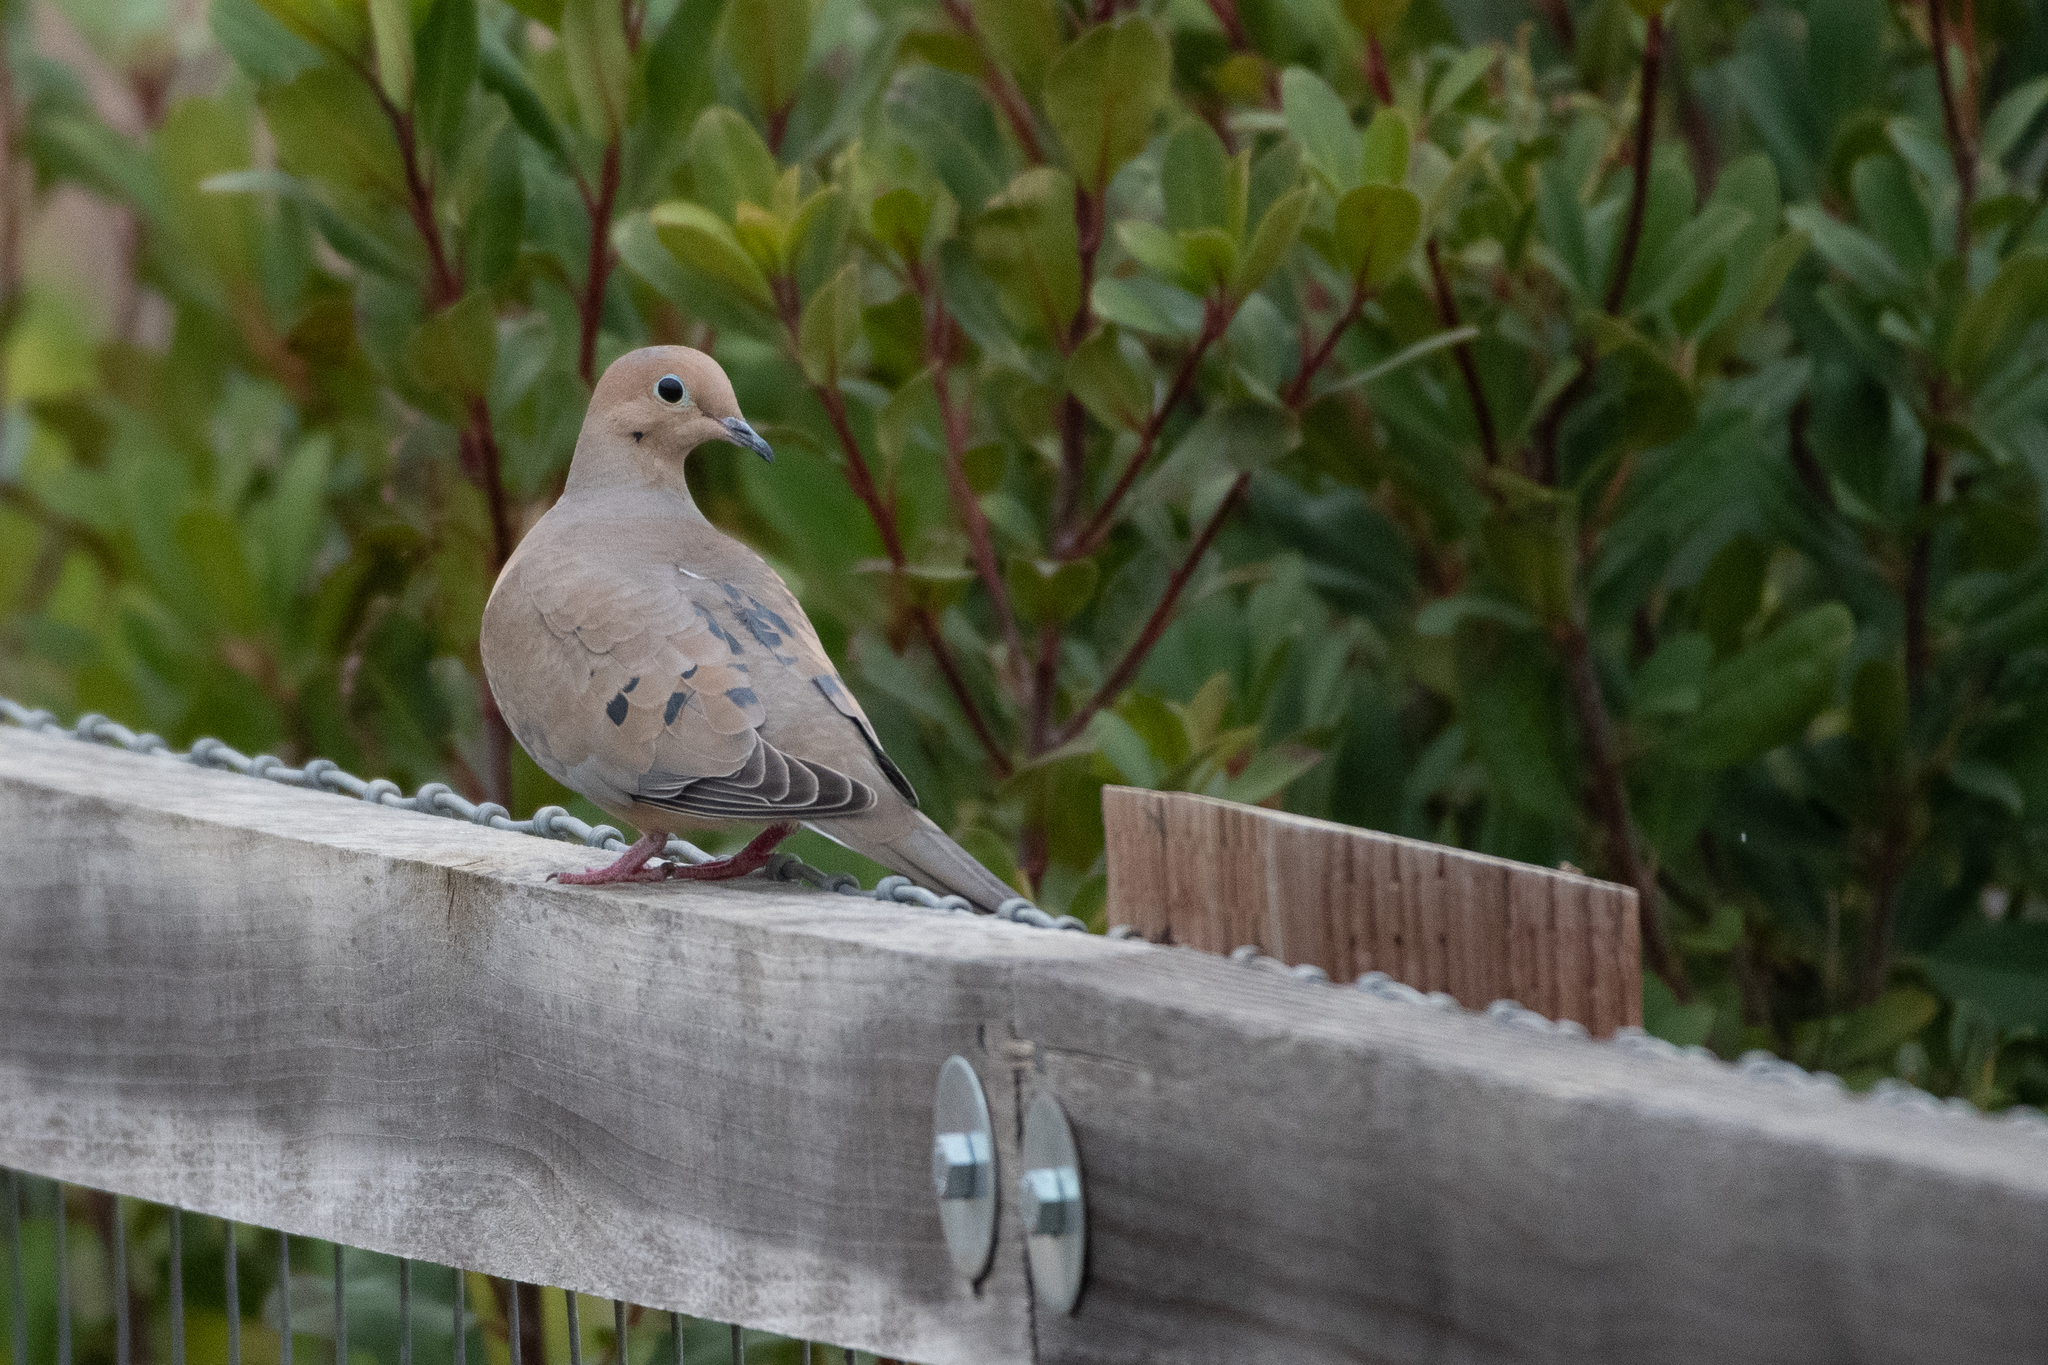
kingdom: Animalia
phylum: Chordata
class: Aves
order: Columbiformes
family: Columbidae
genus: Zenaida
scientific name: Zenaida macroura
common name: Mourning dove
